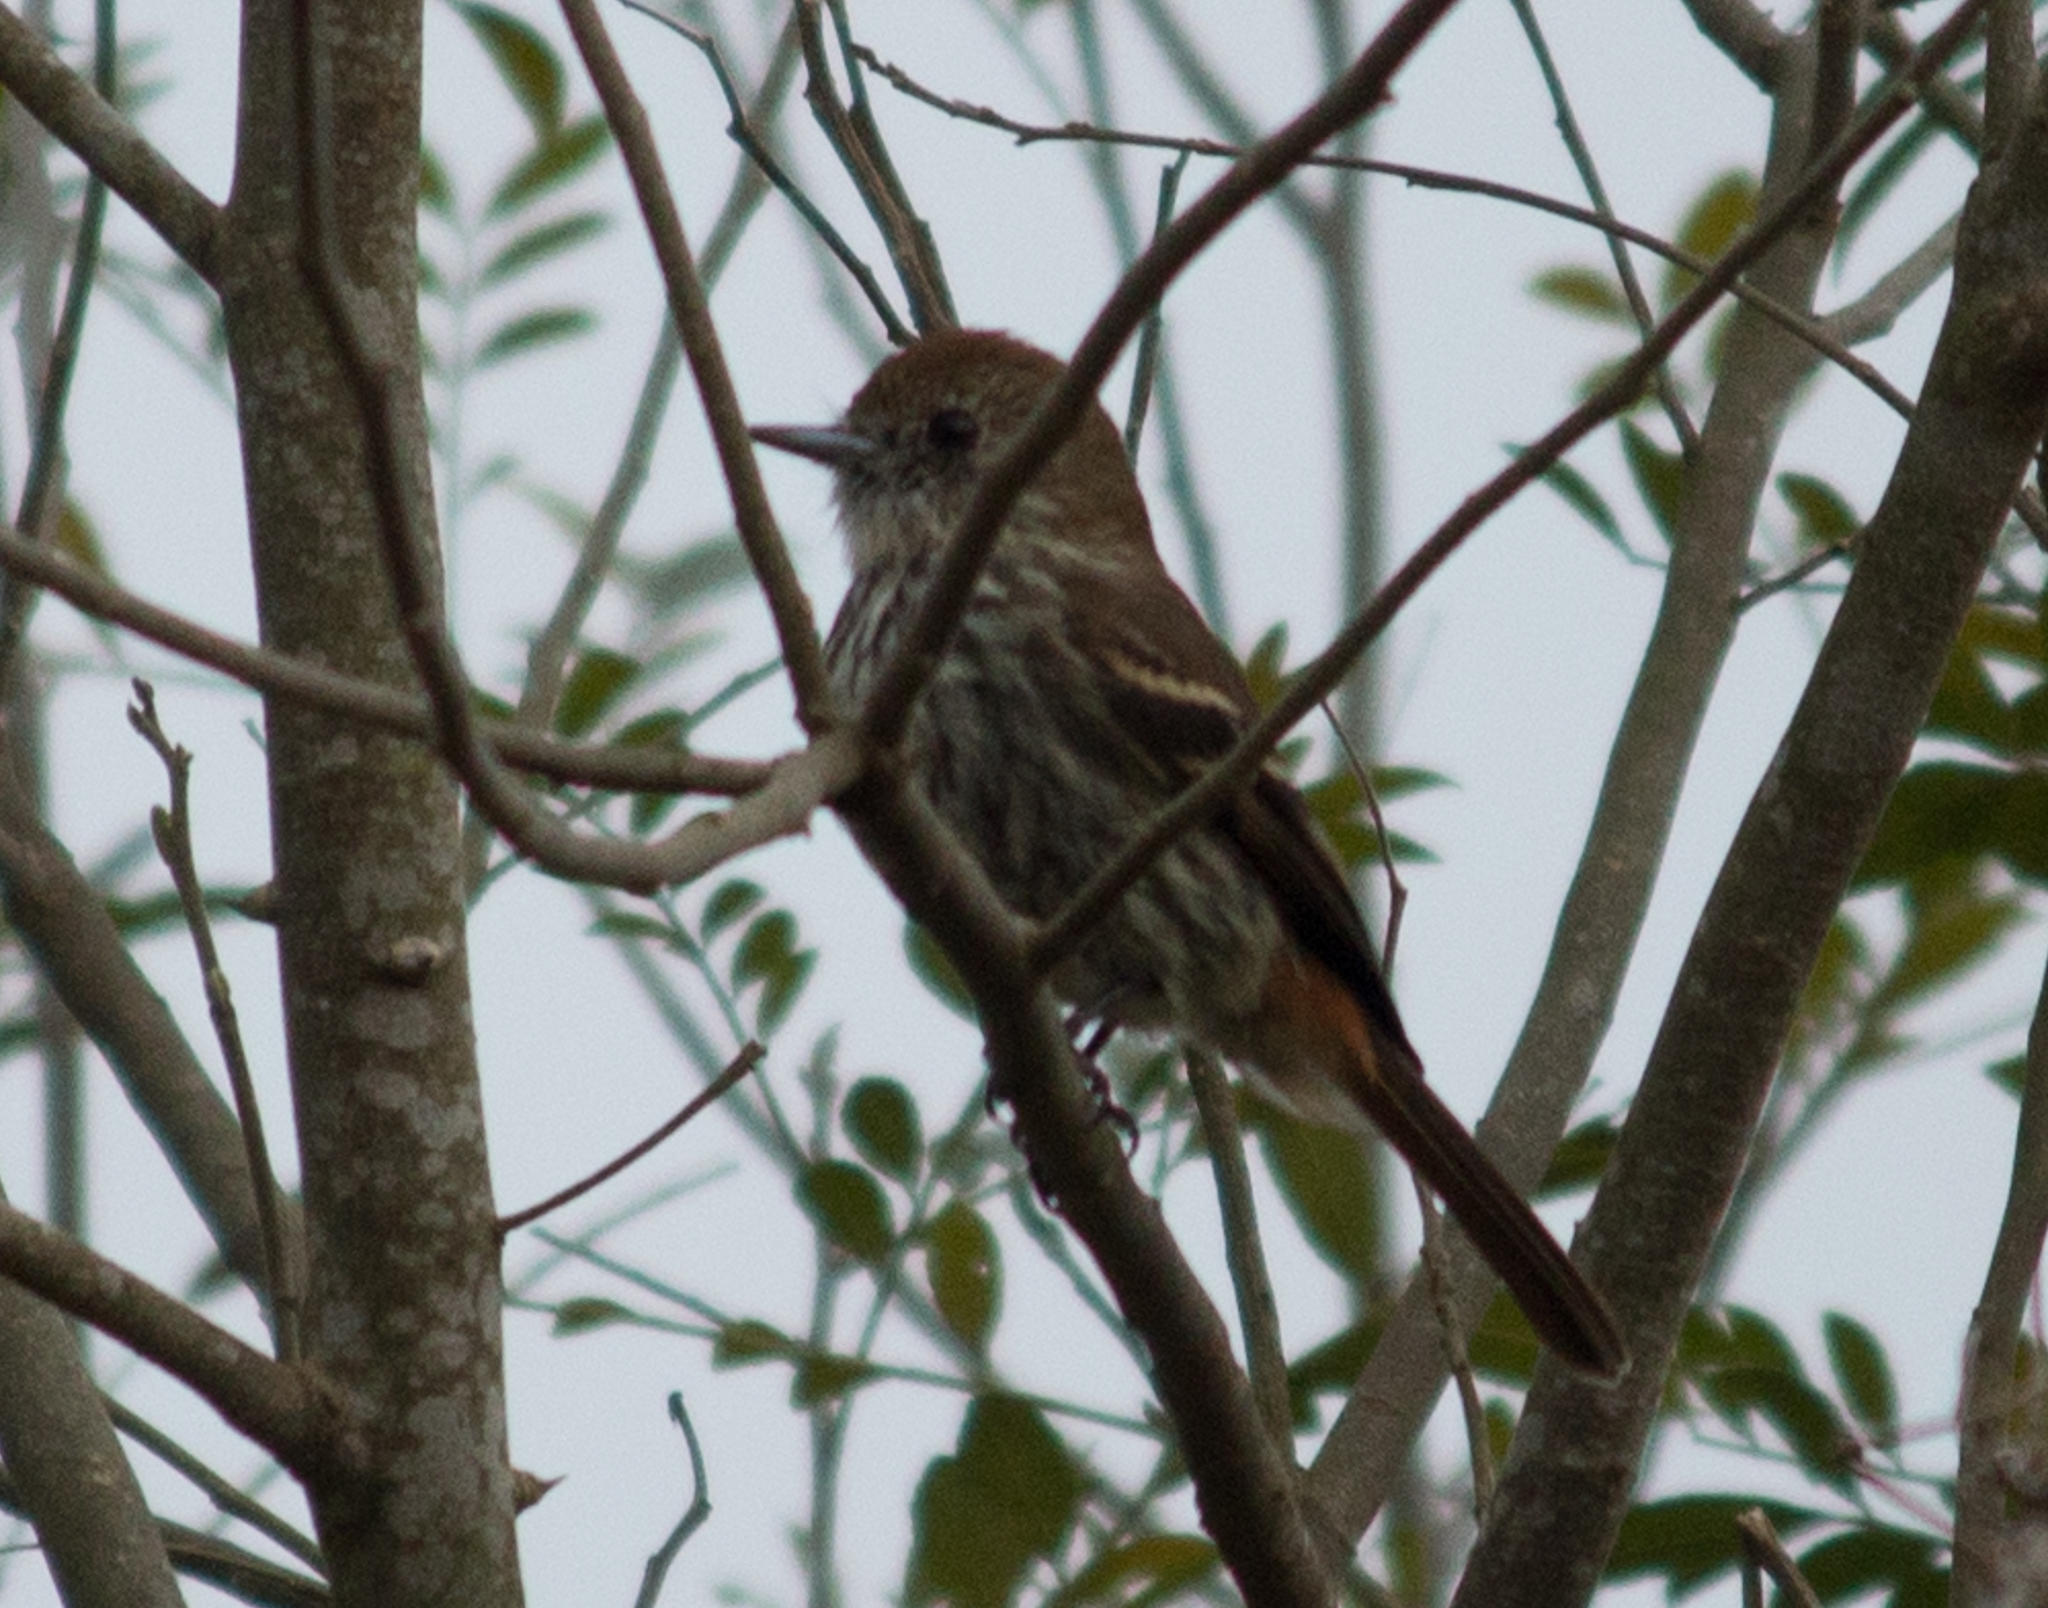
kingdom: Animalia
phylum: Chordata
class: Aves
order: Passeriformes
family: Tyrannidae
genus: Knipolegus
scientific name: Knipolegus cyanirostris
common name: Blue-billed black tyrant
